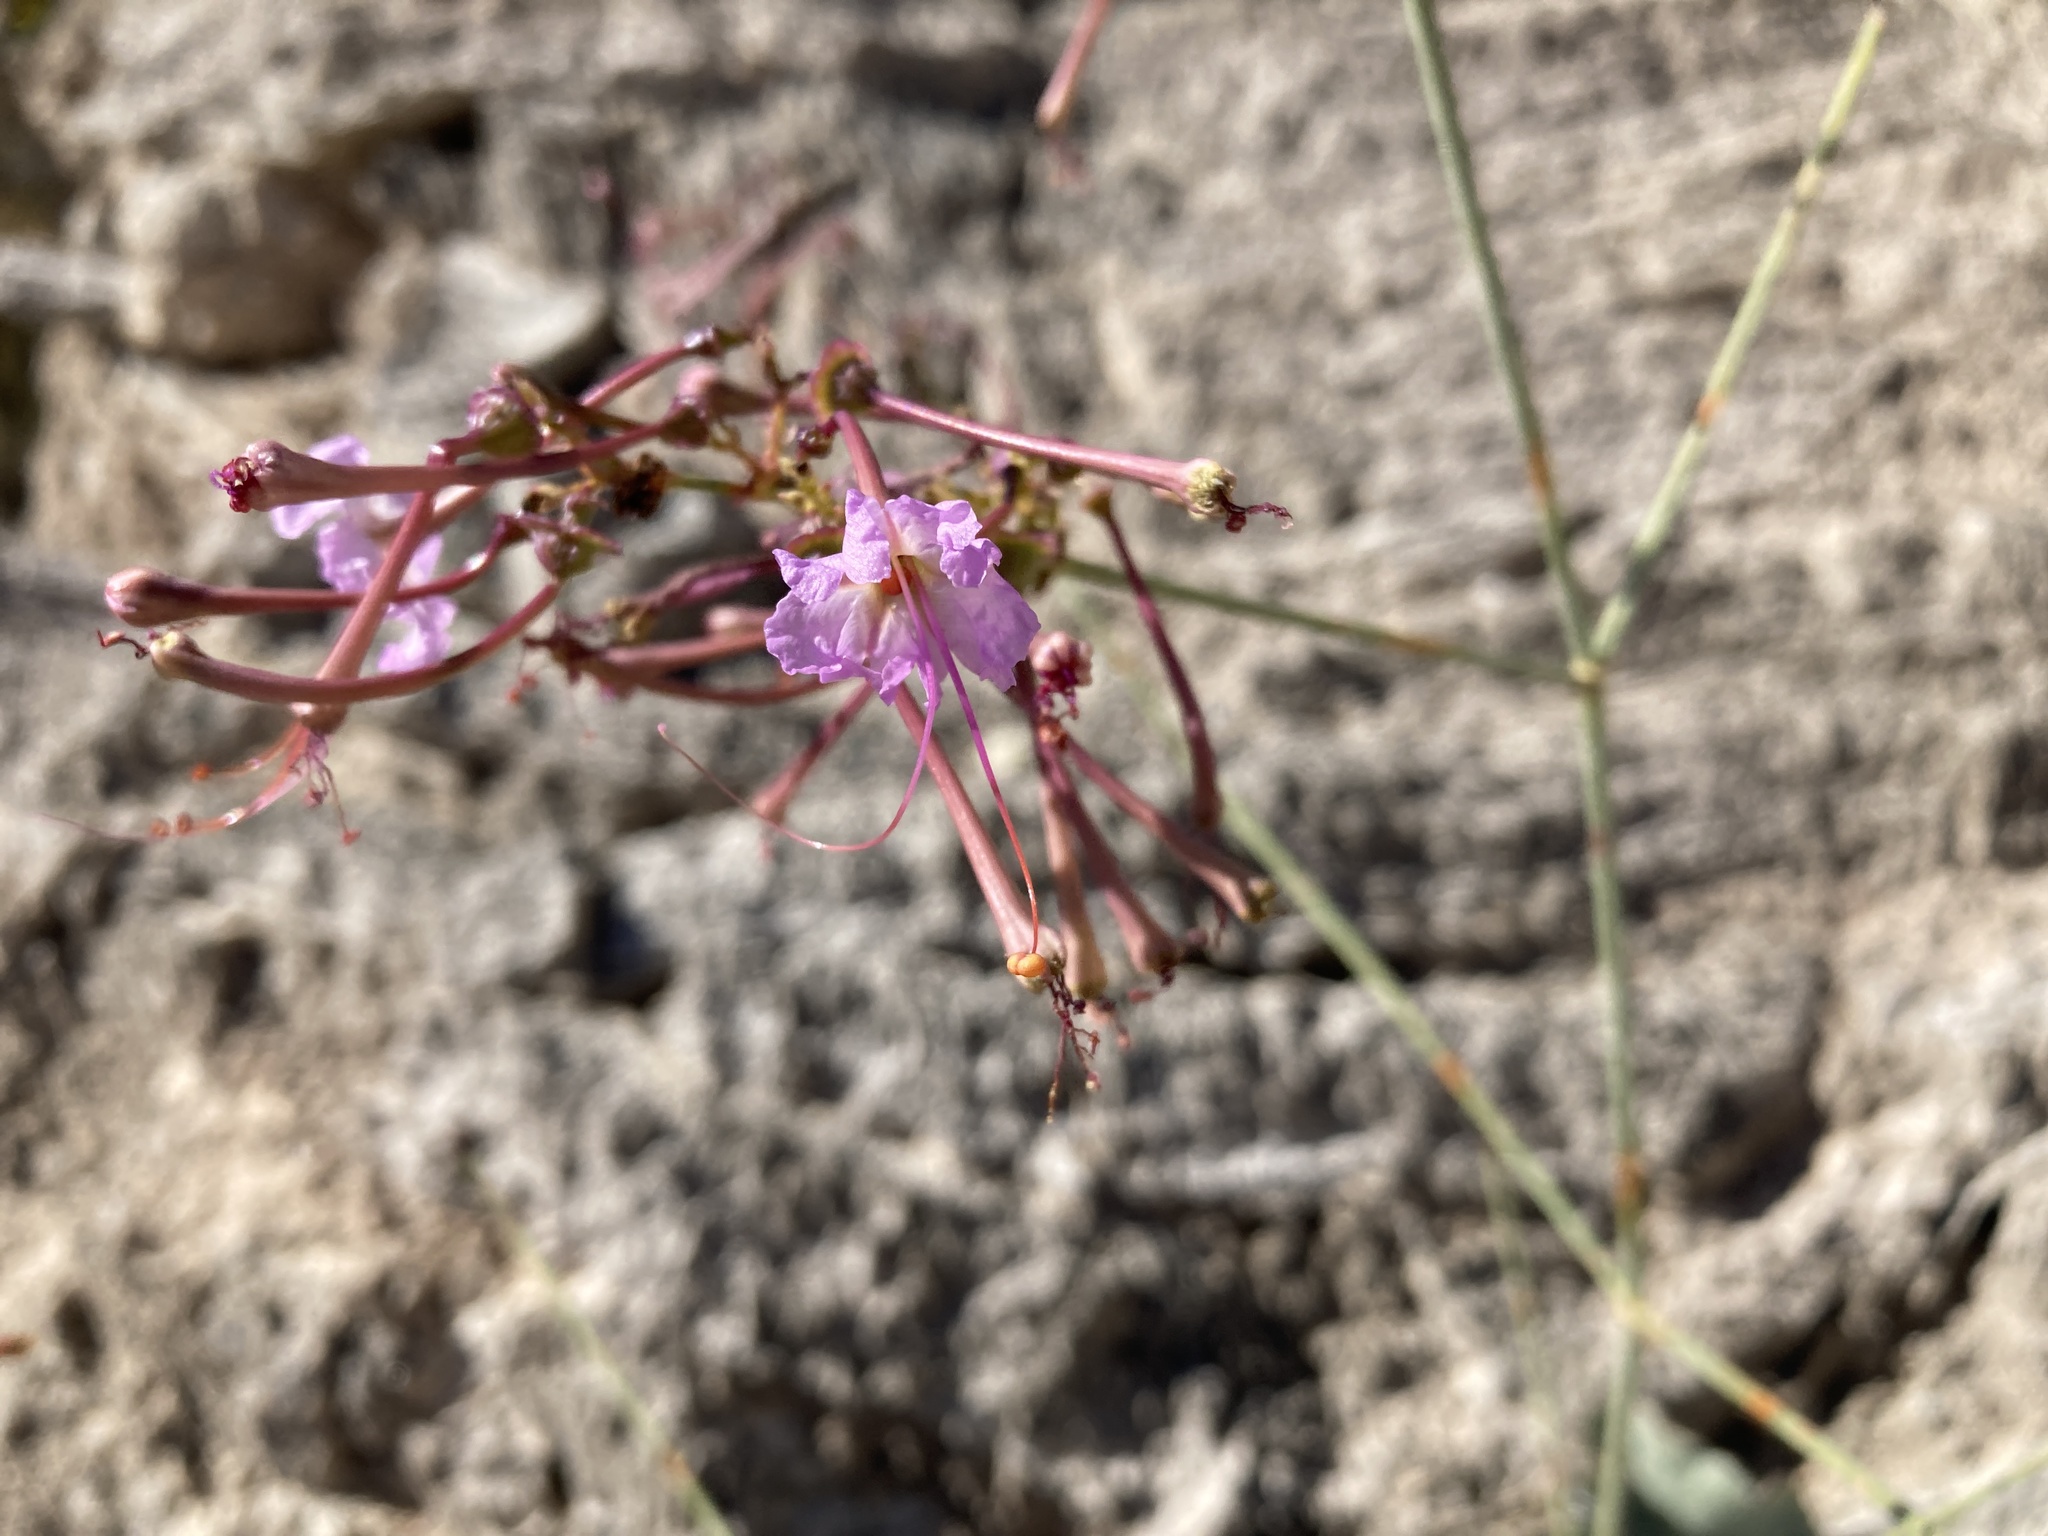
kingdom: Plantae
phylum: Tracheophyta
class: Magnoliopsida
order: Caryophyllales
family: Nyctaginaceae
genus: Anulocaulis
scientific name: Anulocaulis leiosolenus
